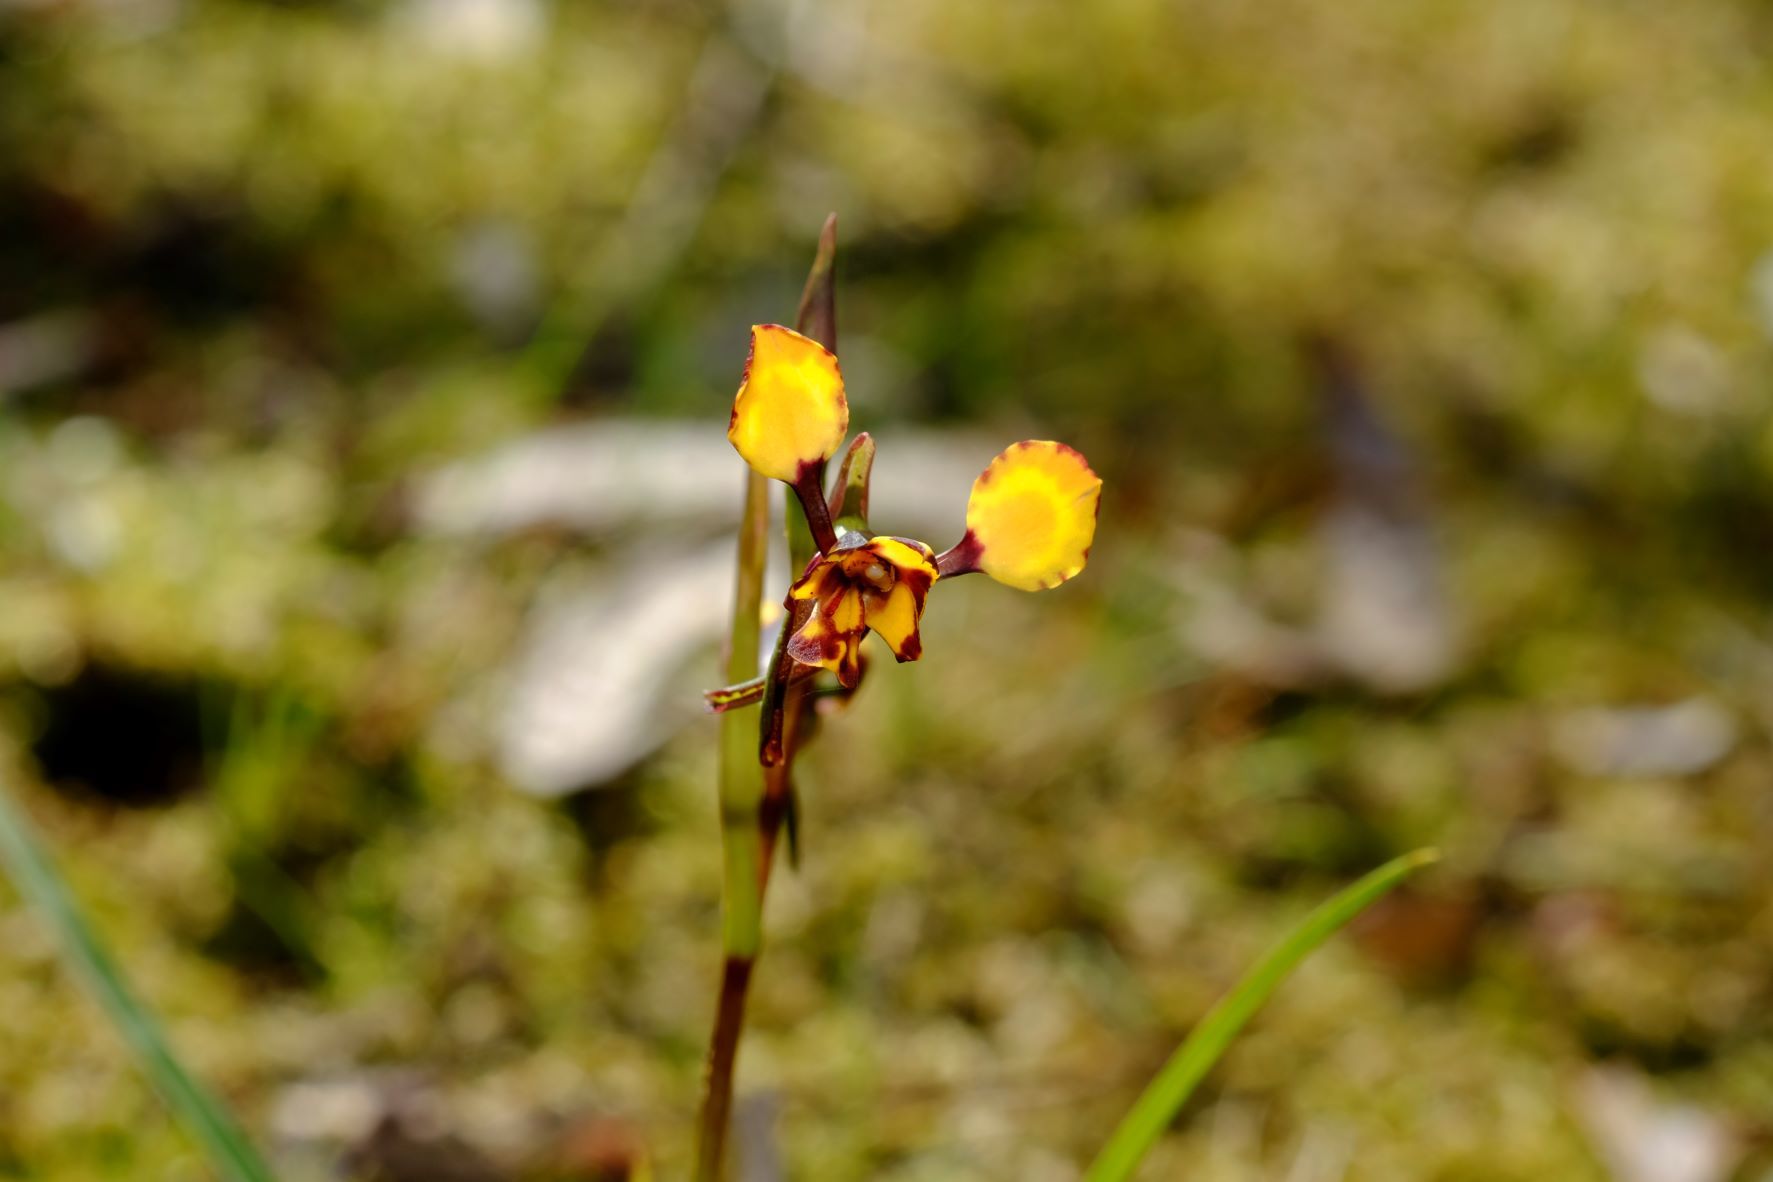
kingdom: Plantae
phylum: Tracheophyta
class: Liliopsida
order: Asparagales
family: Orchidaceae
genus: Diuris
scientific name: Diuris pardina
